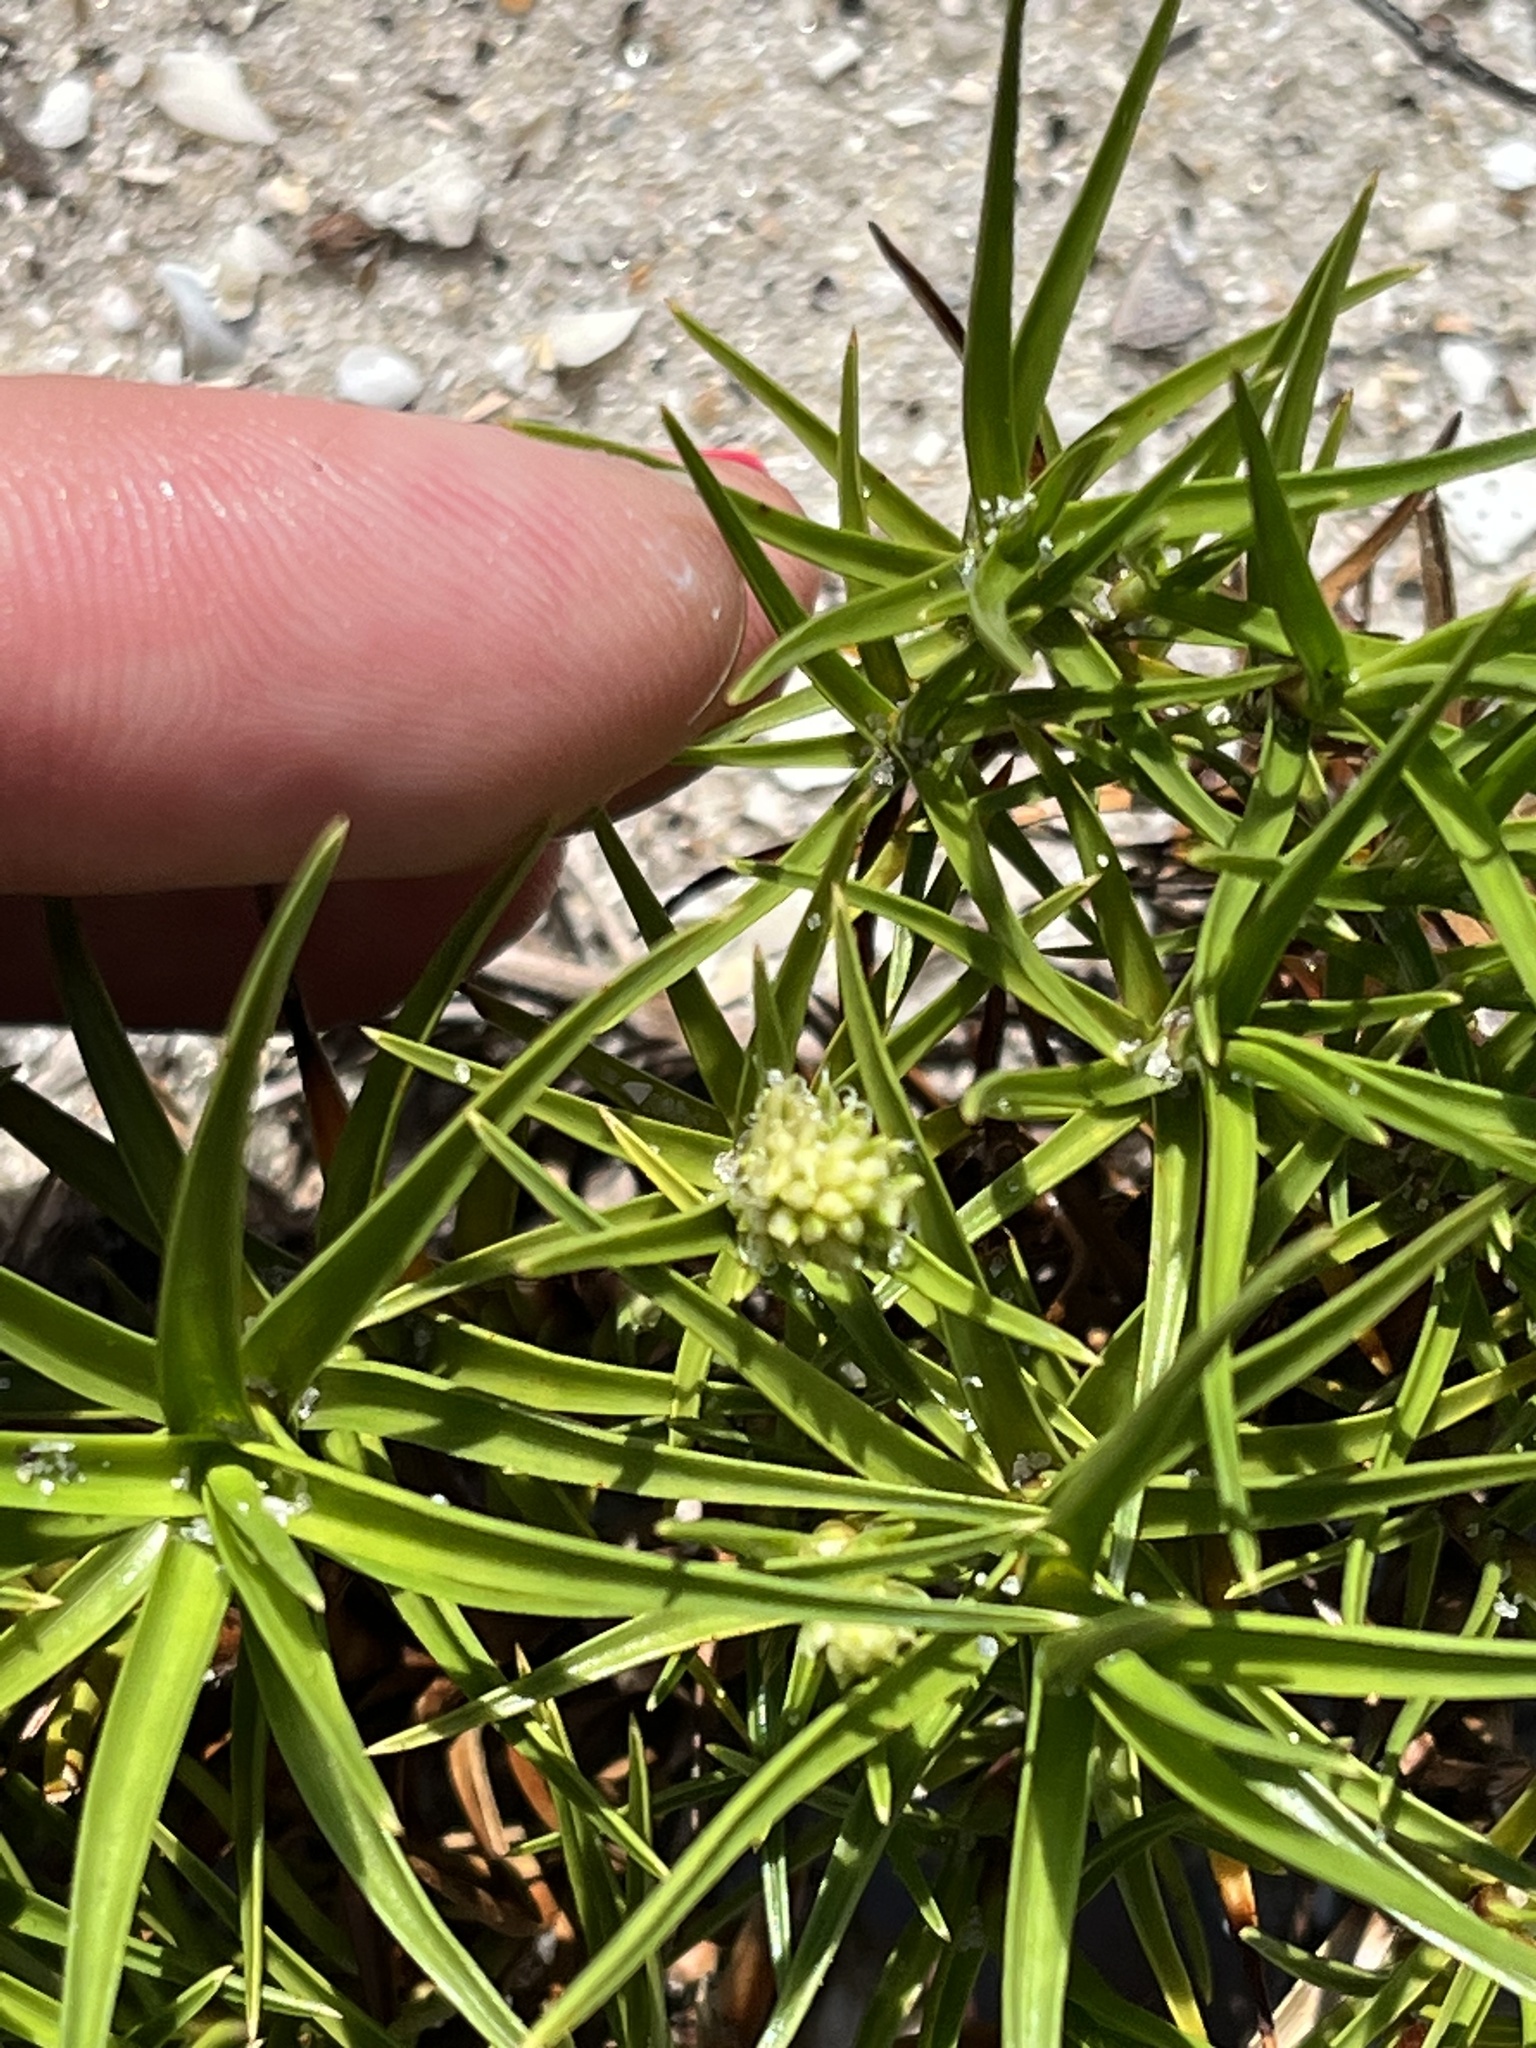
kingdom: Plantae
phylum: Tracheophyta
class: Liliopsida
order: Poales
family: Cyperaceae
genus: Cyperus
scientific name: Cyperus pedunculatus
